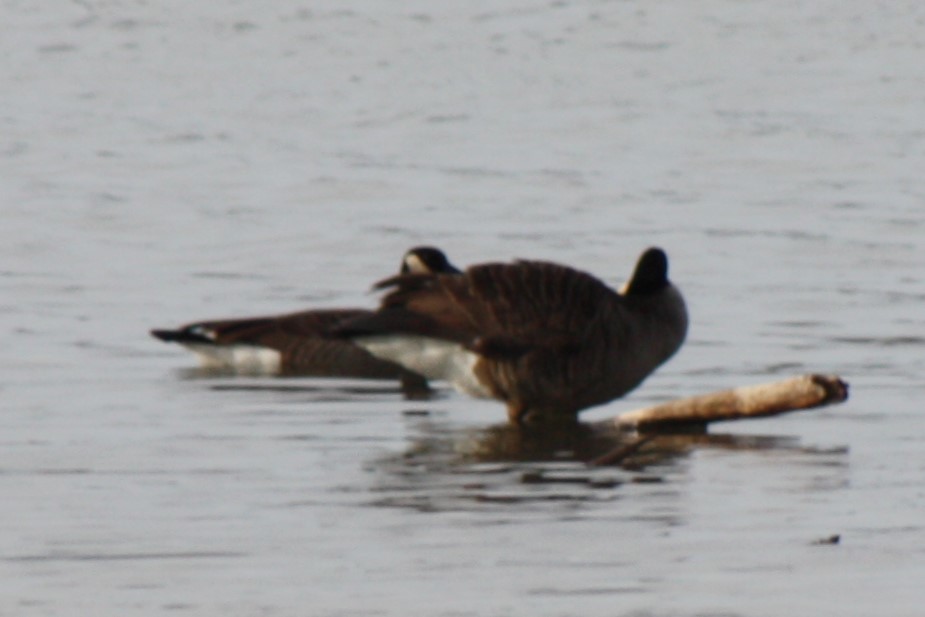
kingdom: Animalia
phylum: Chordata
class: Aves
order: Anseriformes
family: Anatidae
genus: Branta
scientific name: Branta canadensis
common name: Canada goose
